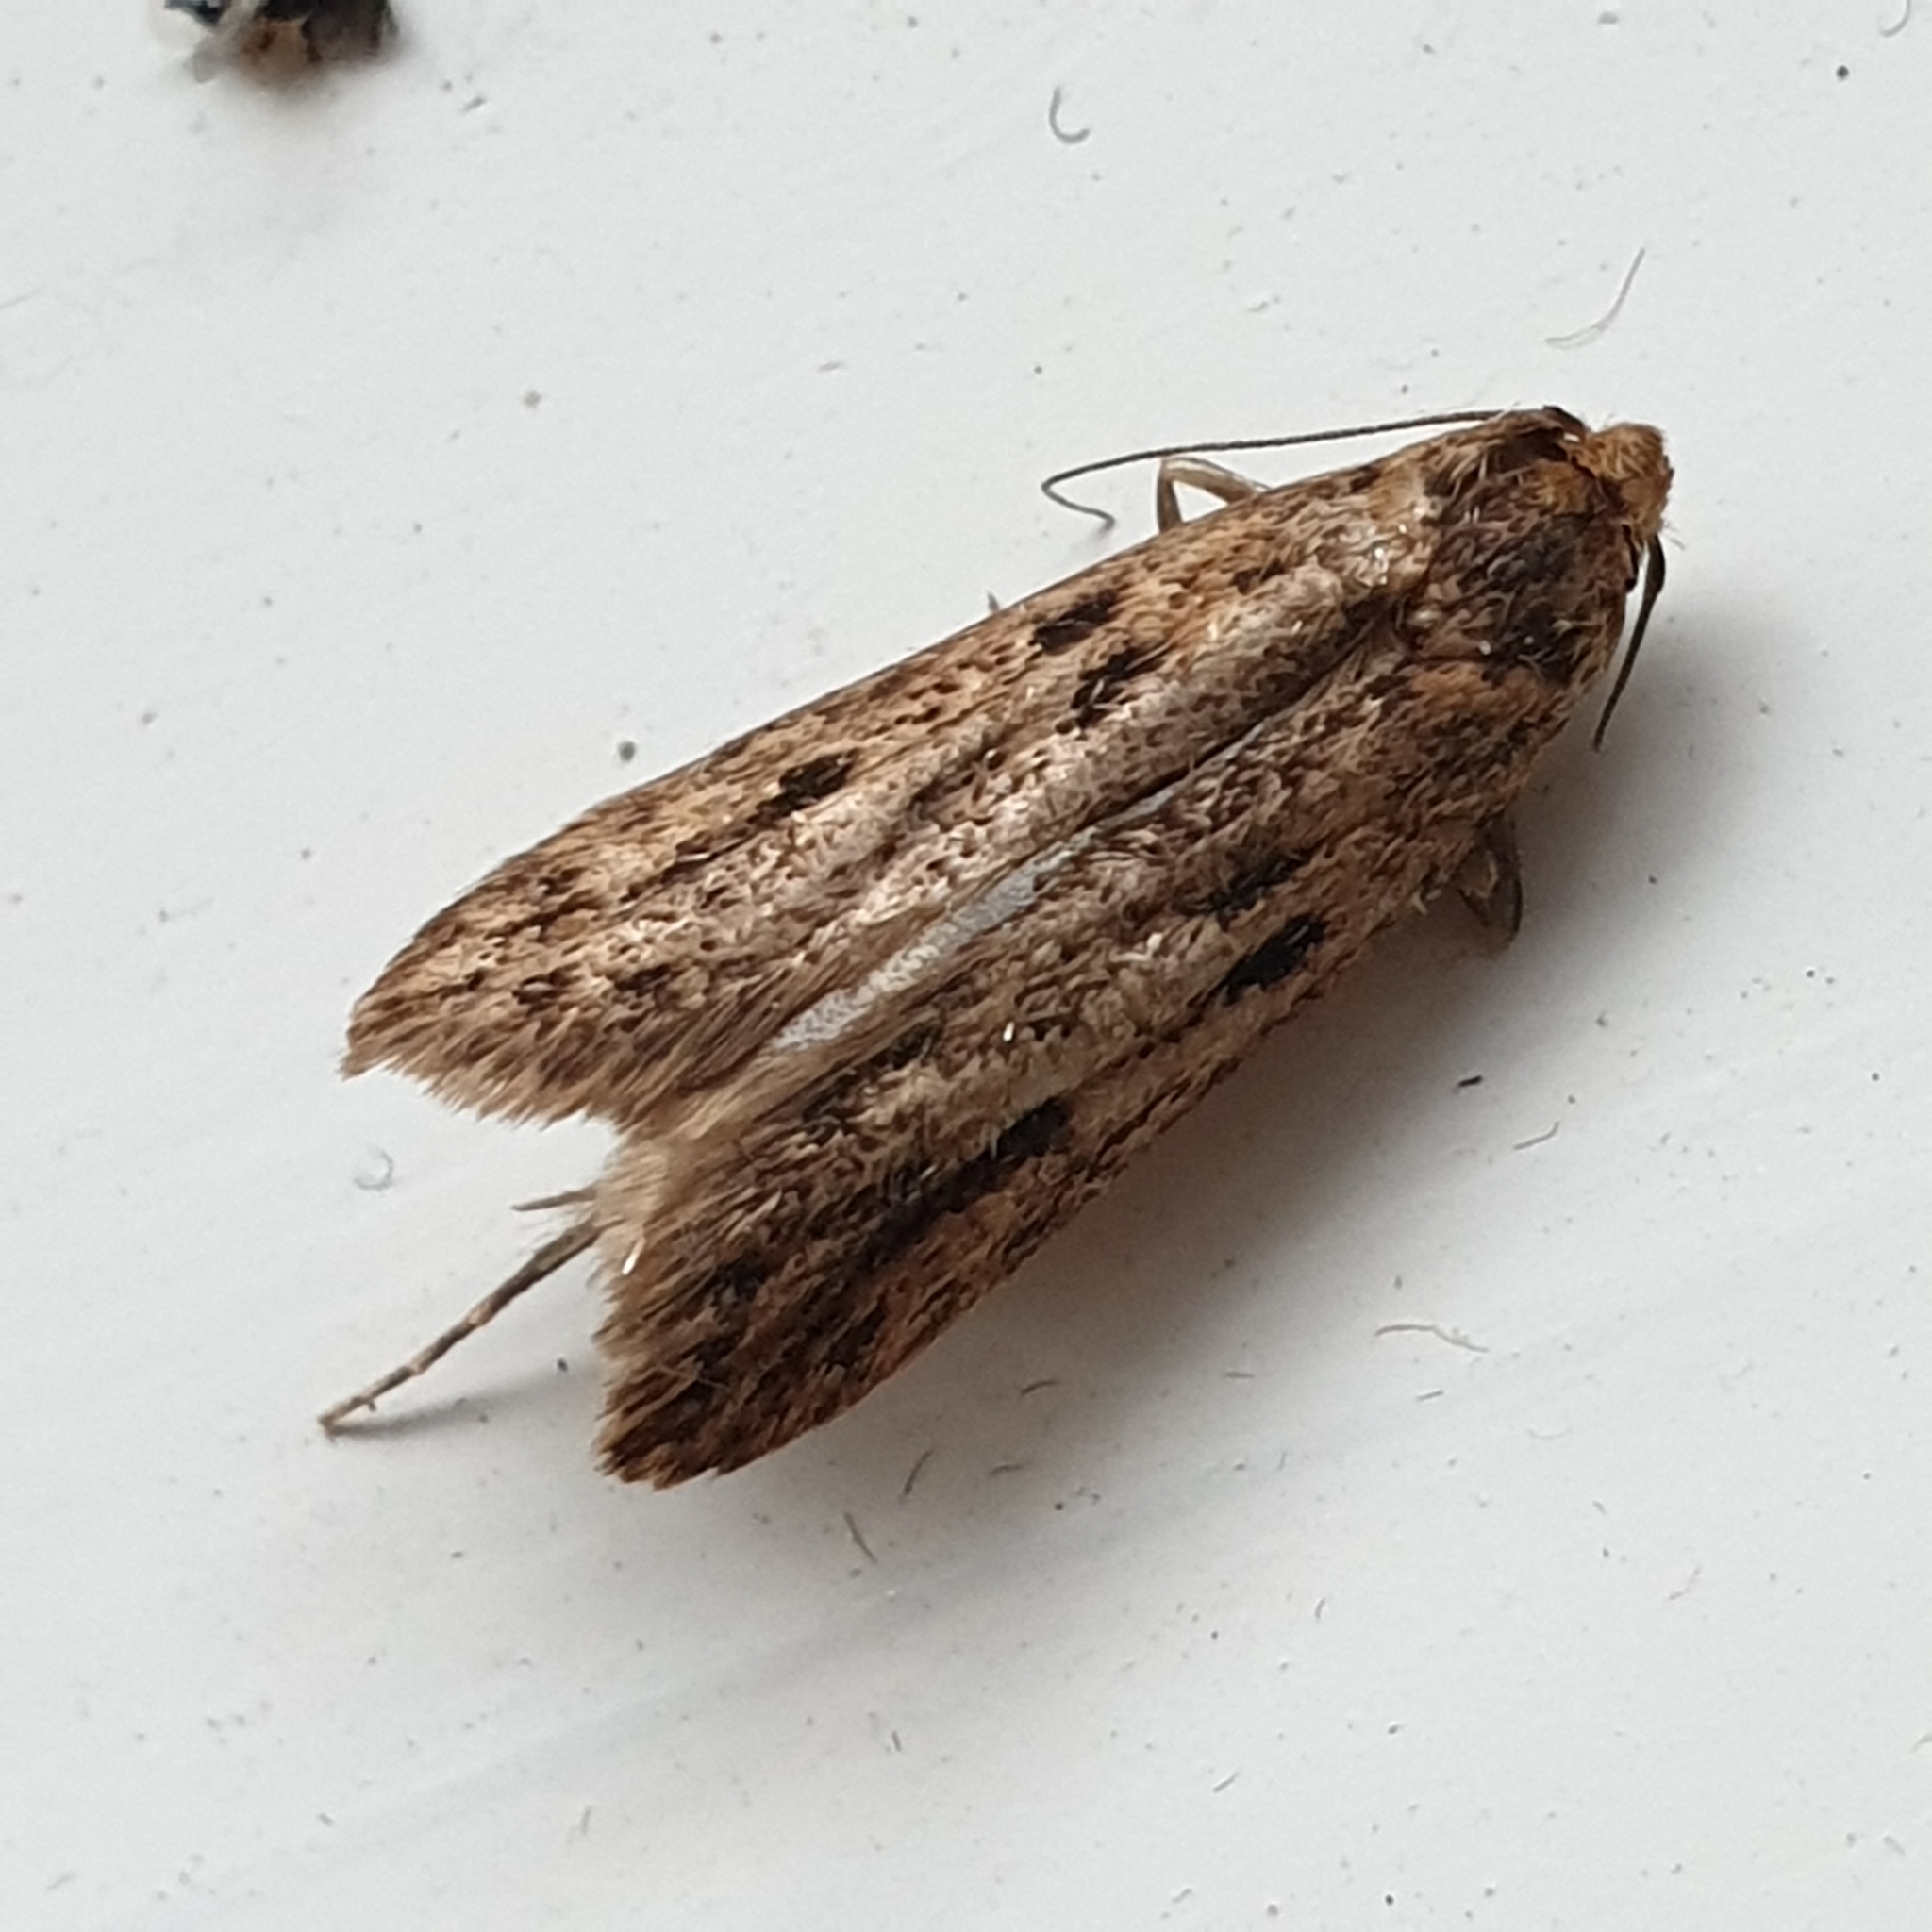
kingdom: Animalia
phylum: Arthropoda
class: Insecta
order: Lepidoptera
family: Oecophoridae
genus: Hofmannophila
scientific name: Hofmannophila pseudospretella
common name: Brown house moth
